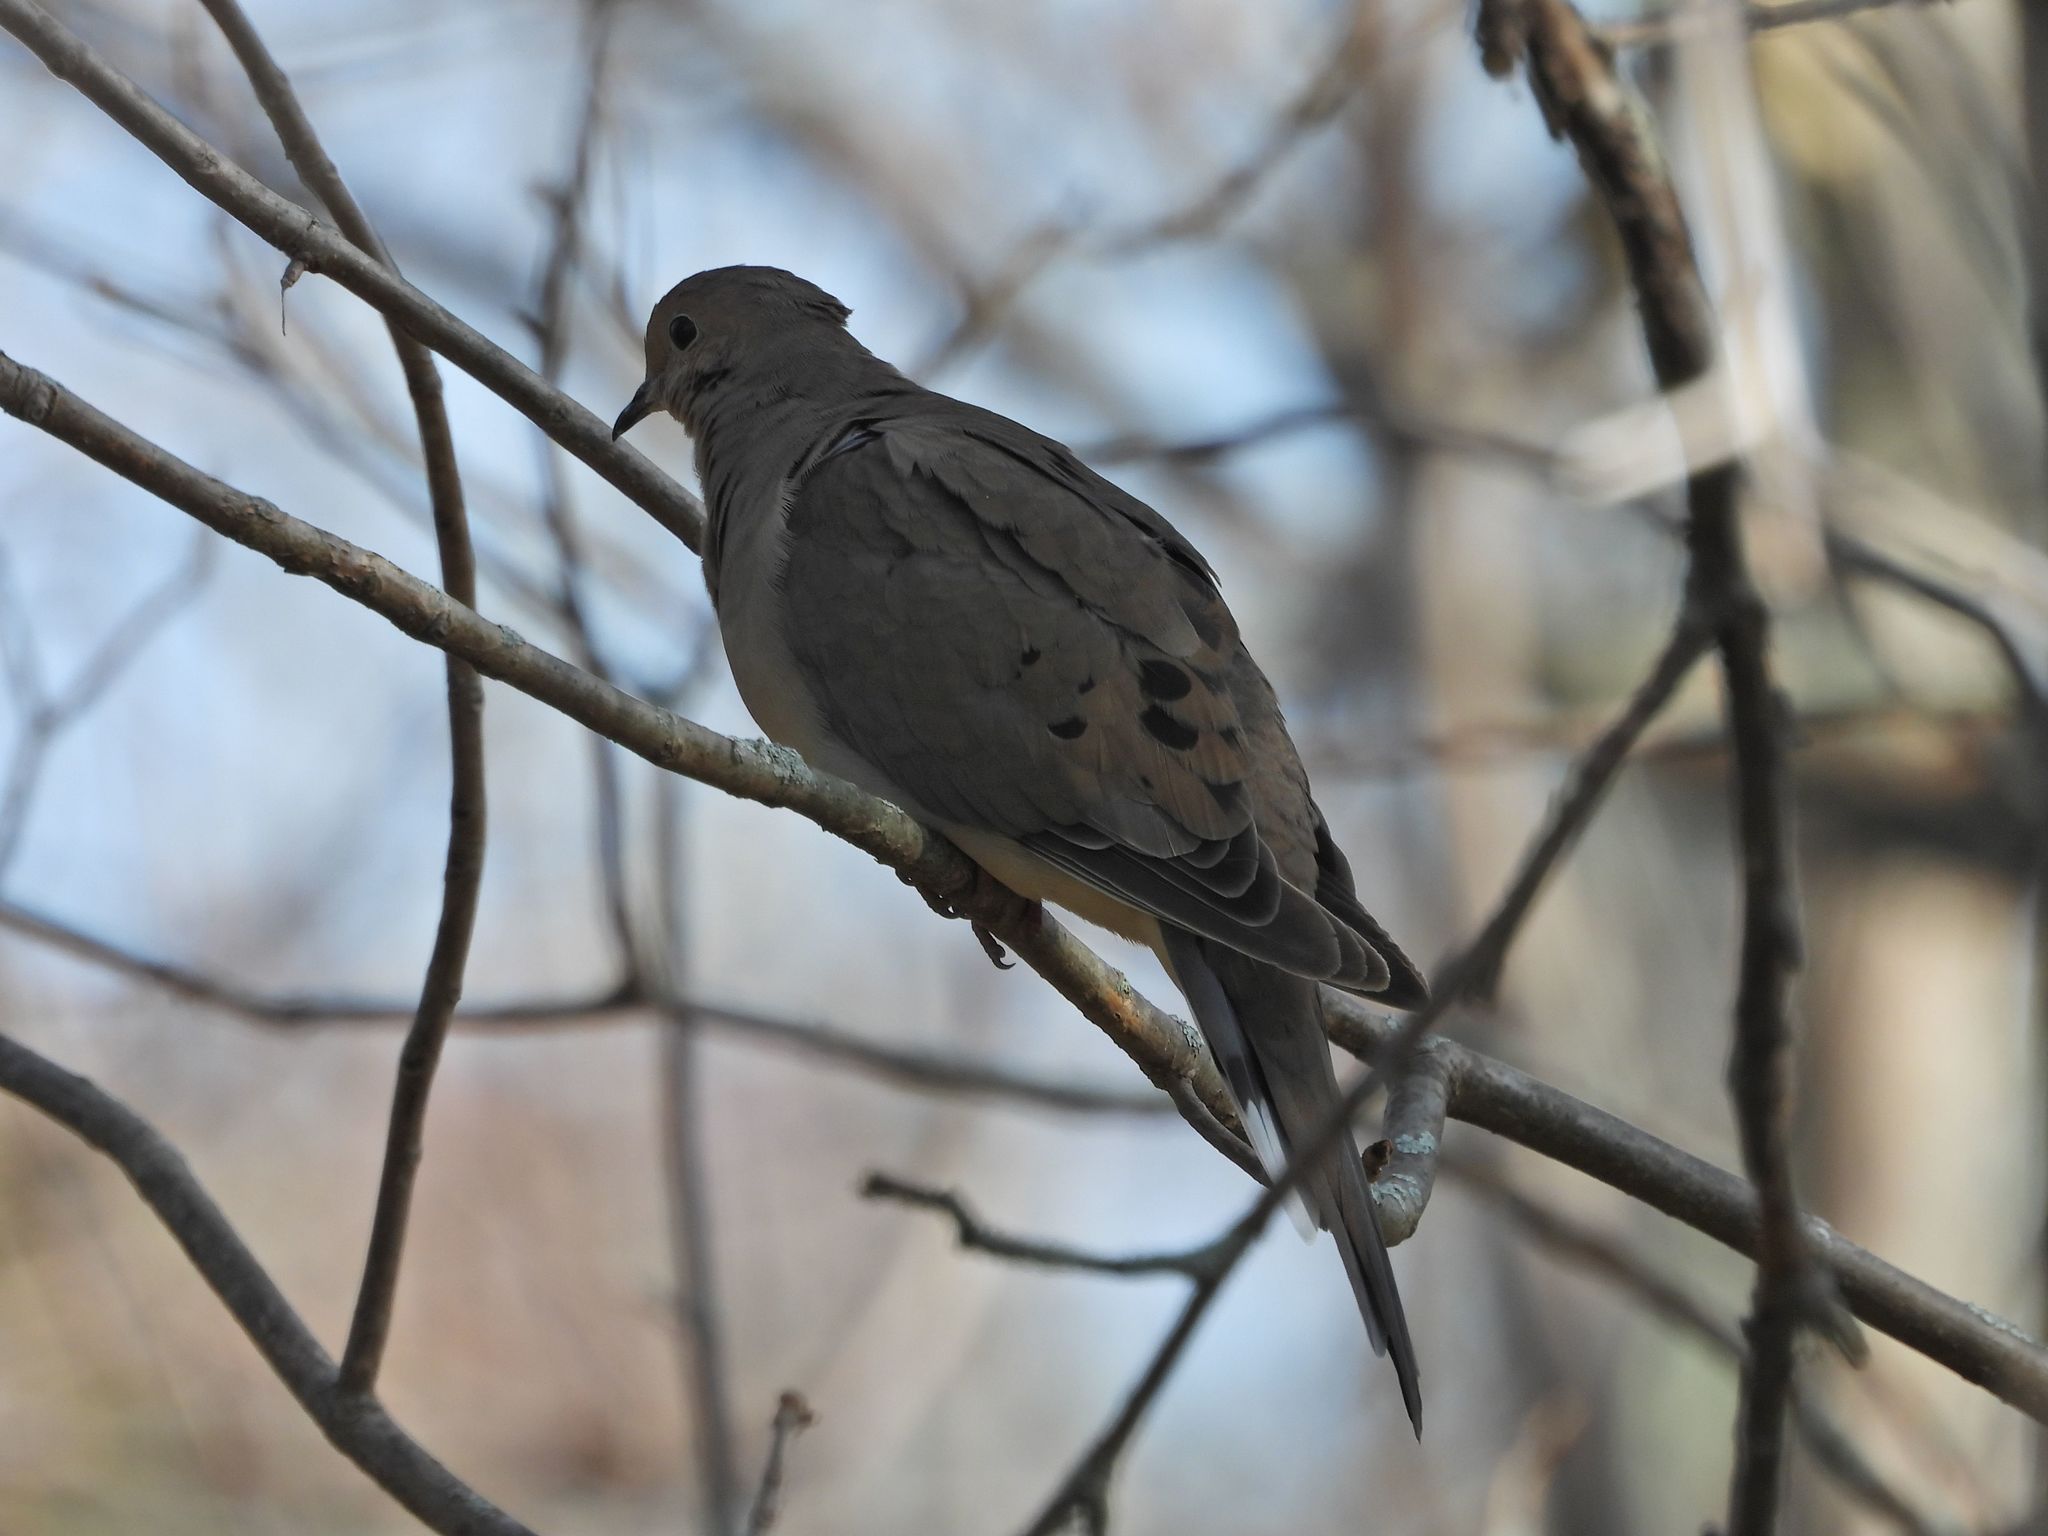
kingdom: Animalia
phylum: Chordata
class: Aves
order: Columbiformes
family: Columbidae
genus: Zenaida
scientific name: Zenaida macroura
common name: Mourning dove
